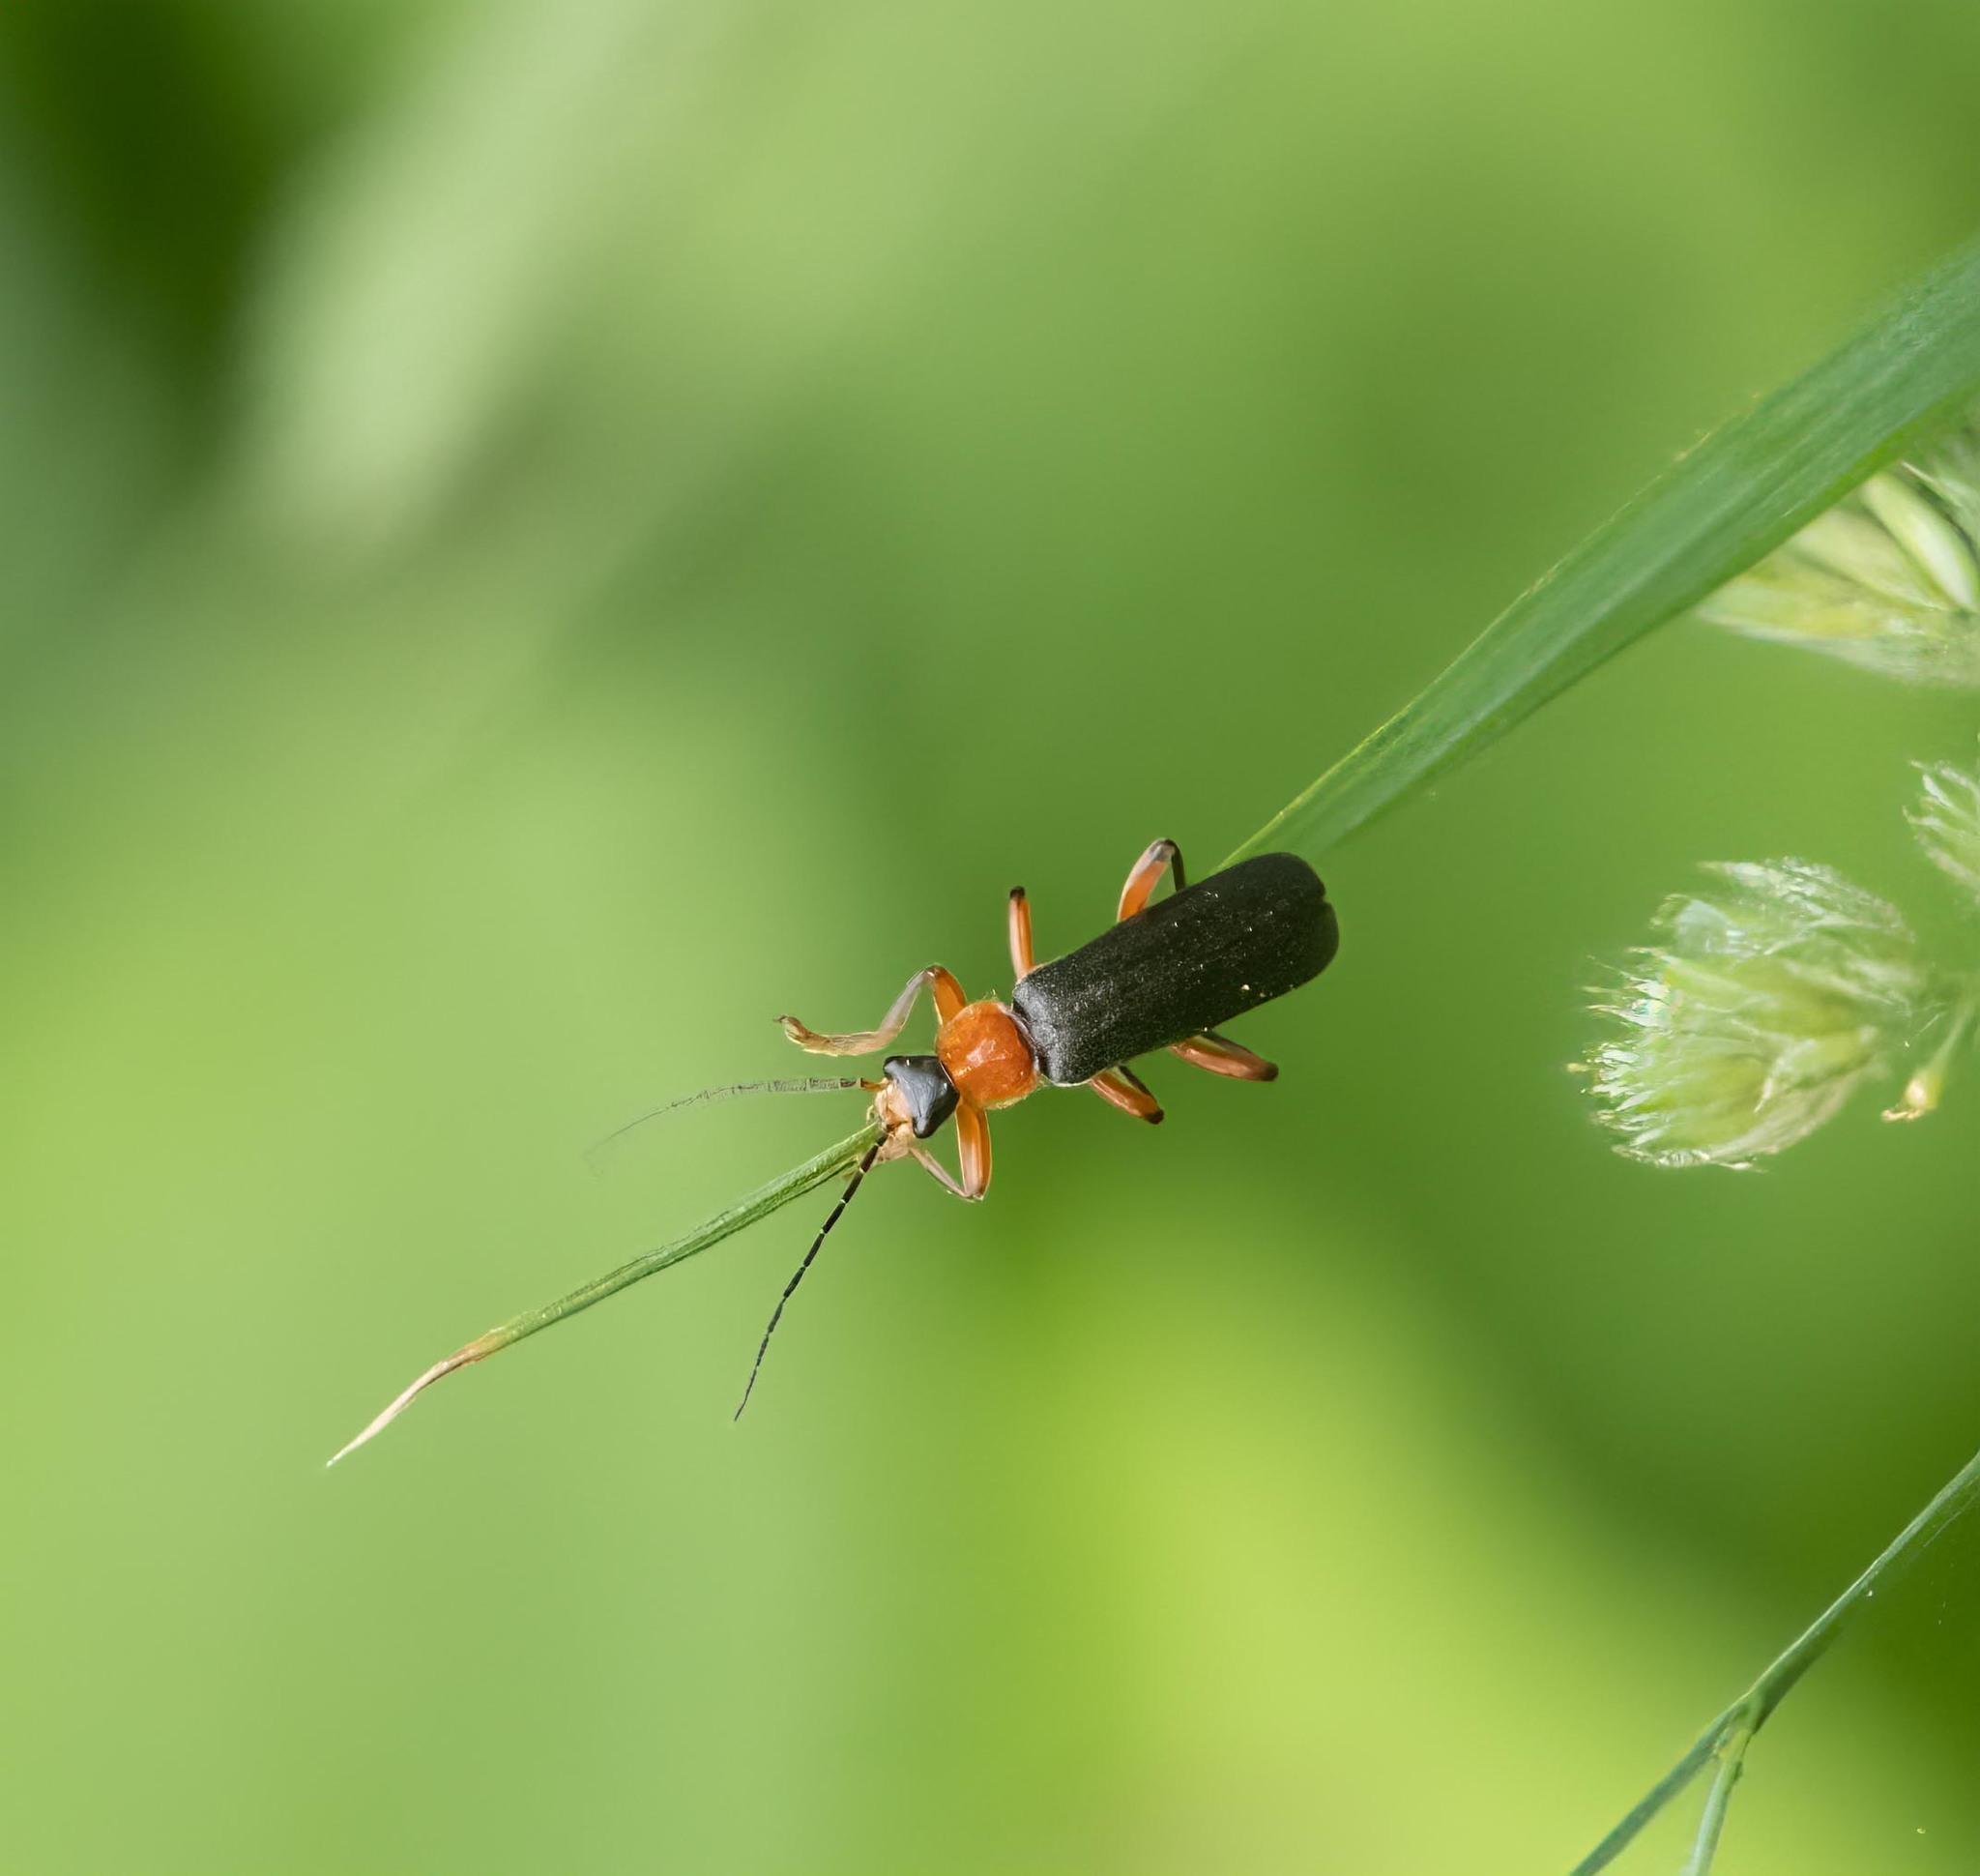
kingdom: Animalia
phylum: Arthropoda
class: Insecta
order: Coleoptera
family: Cantharidae
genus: Cantharis
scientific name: Cantharis pellucida
